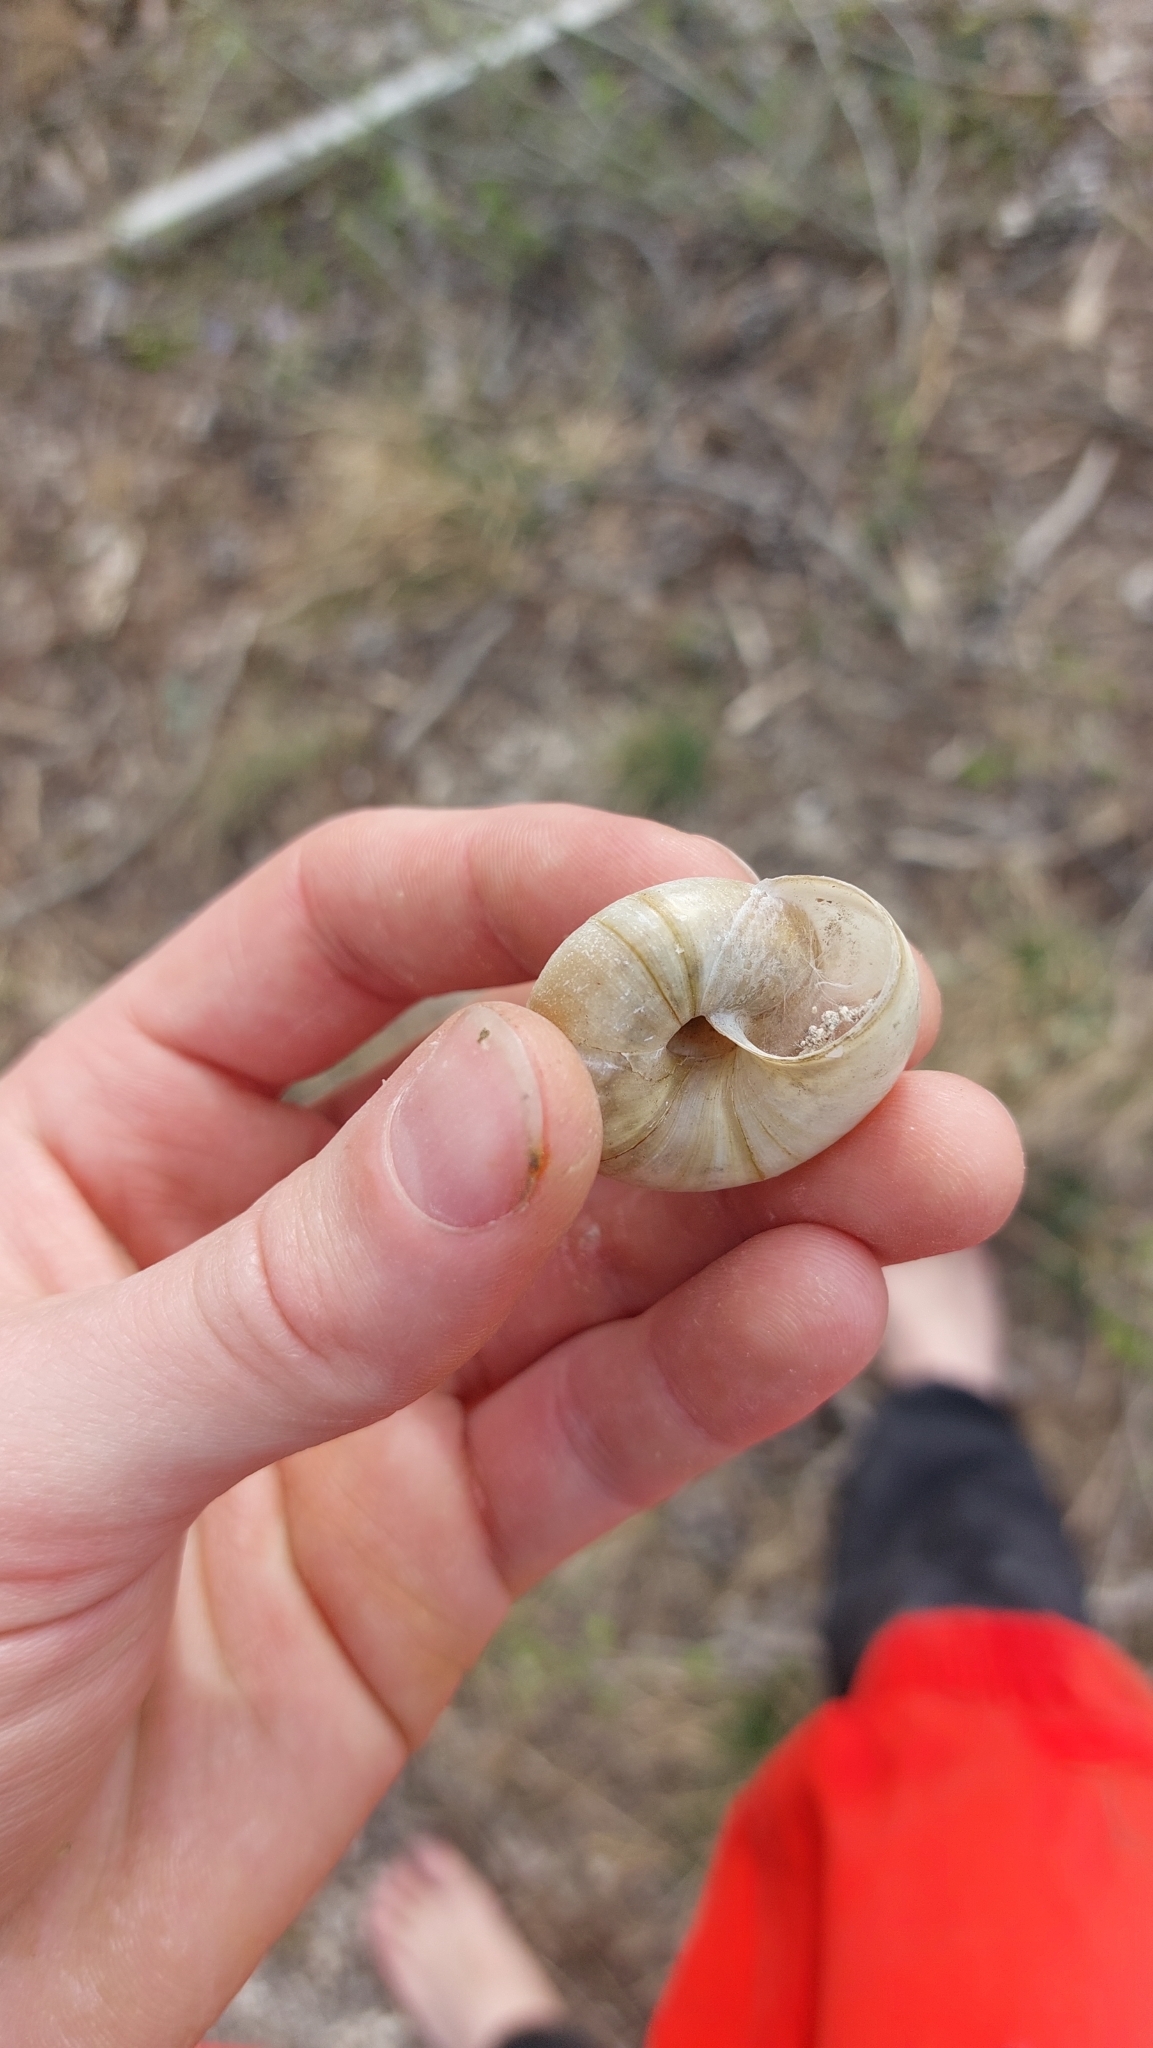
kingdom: Animalia
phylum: Mollusca
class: Gastropoda
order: Stylommatophora
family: Zonitidae
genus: Aegopis
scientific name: Aegopis verticillus
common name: Giant glass snail
